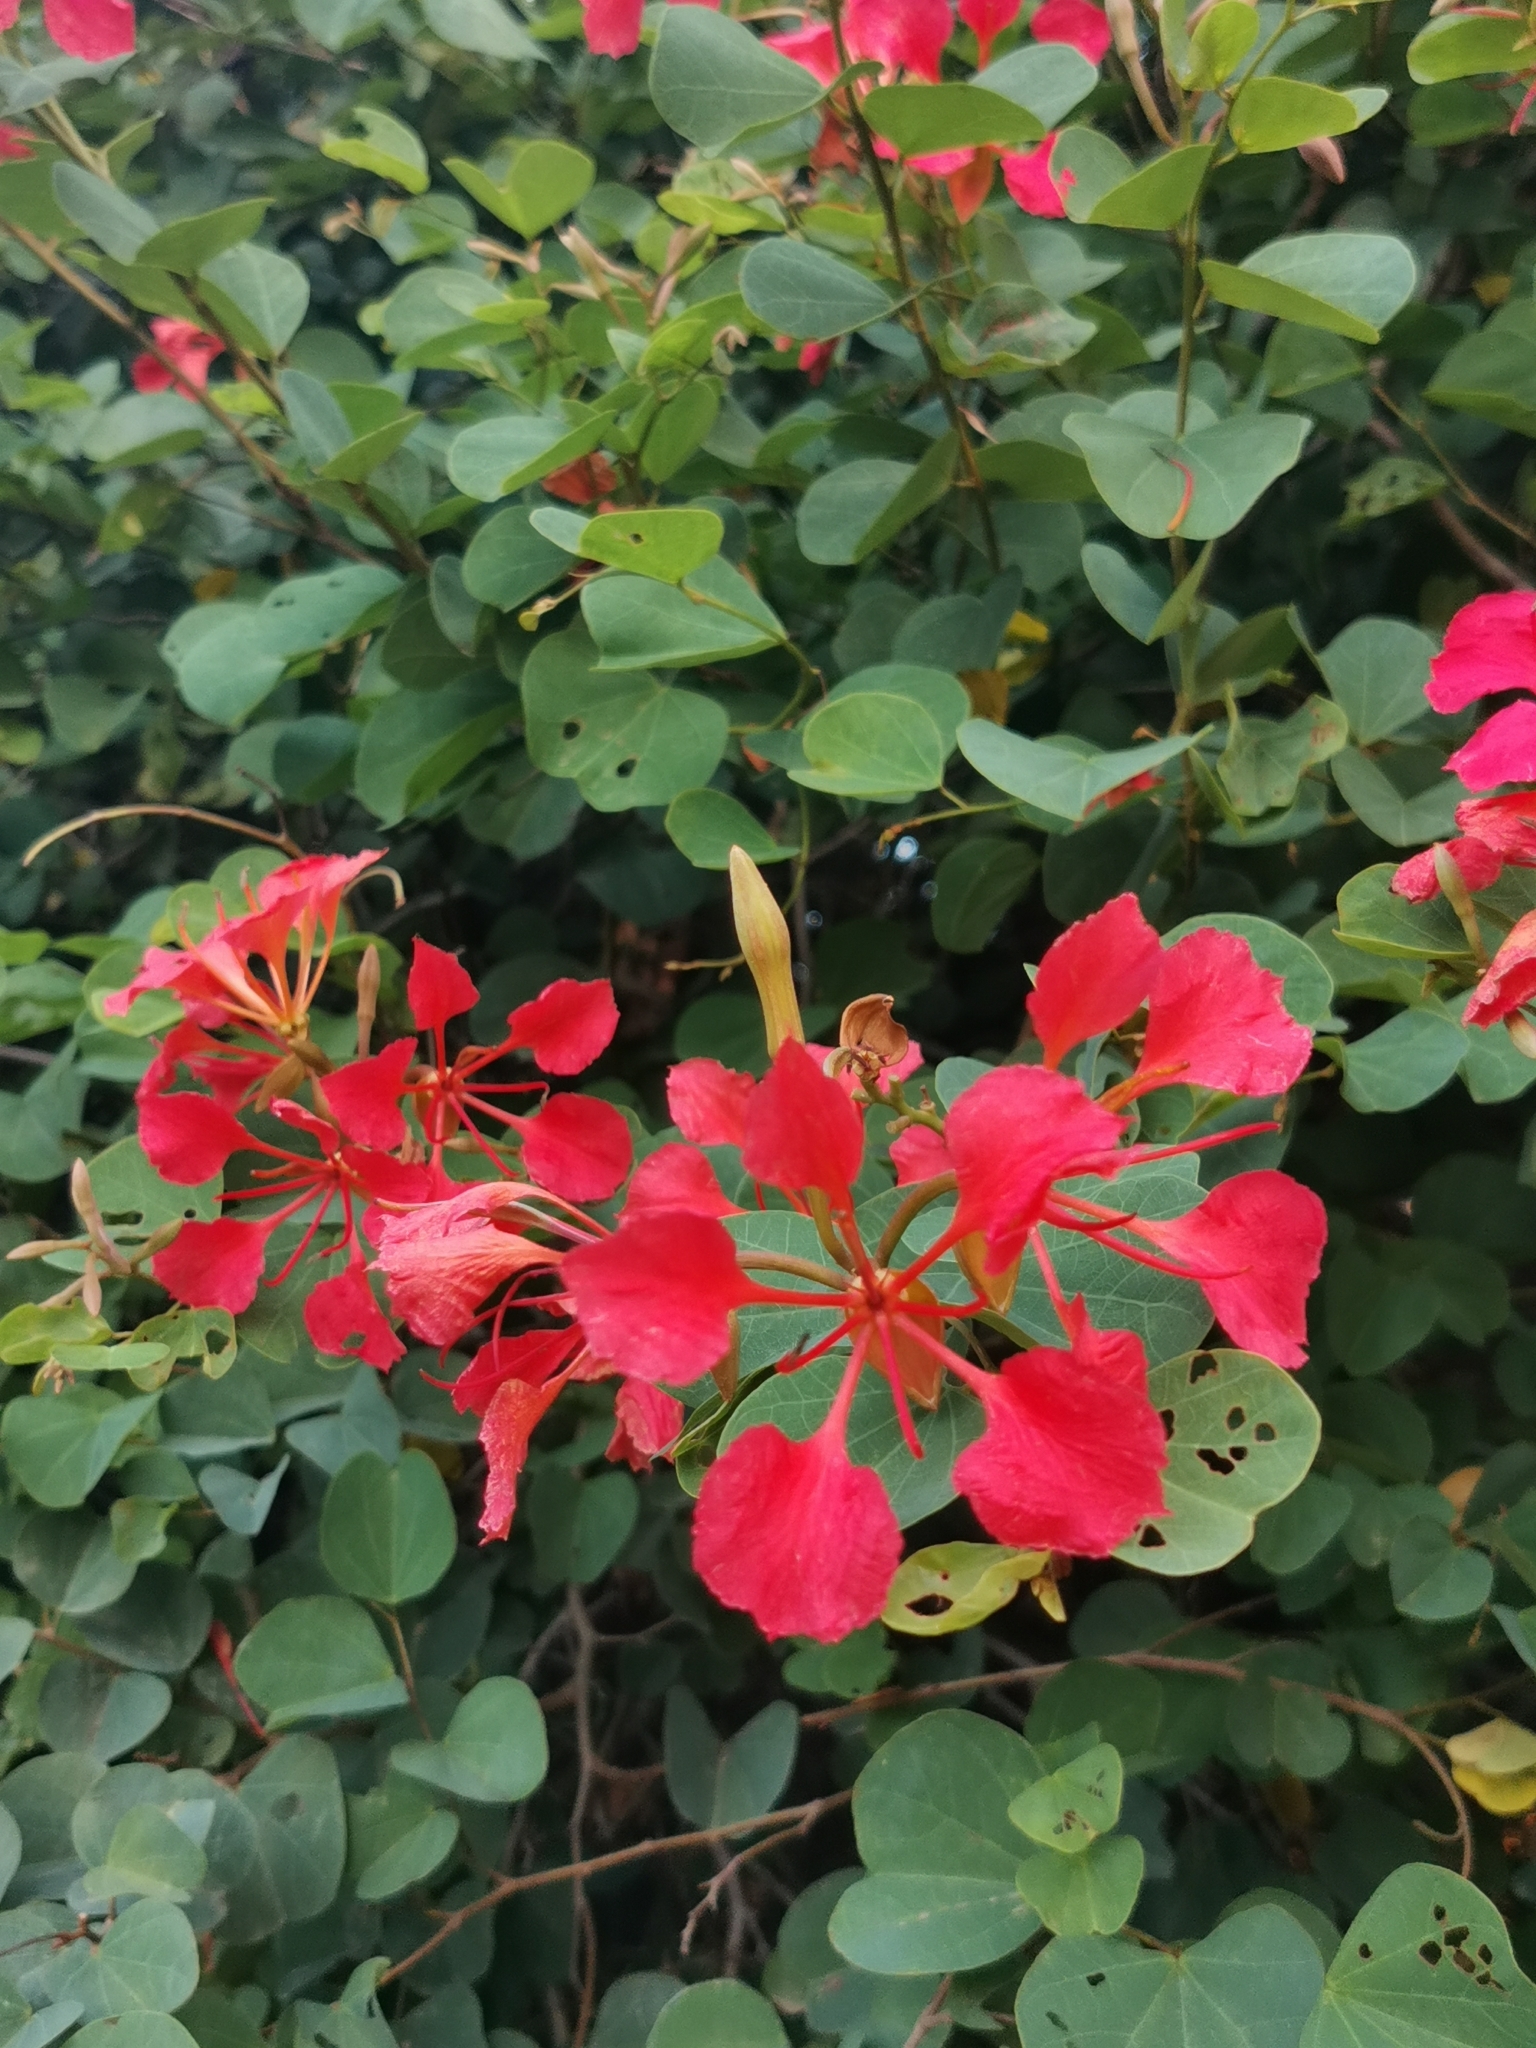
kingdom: Plantae
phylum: Tracheophyta
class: Magnoliopsida
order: Fabales
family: Fabaceae
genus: Bauhinia
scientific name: Bauhinia galpinii
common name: African plume
